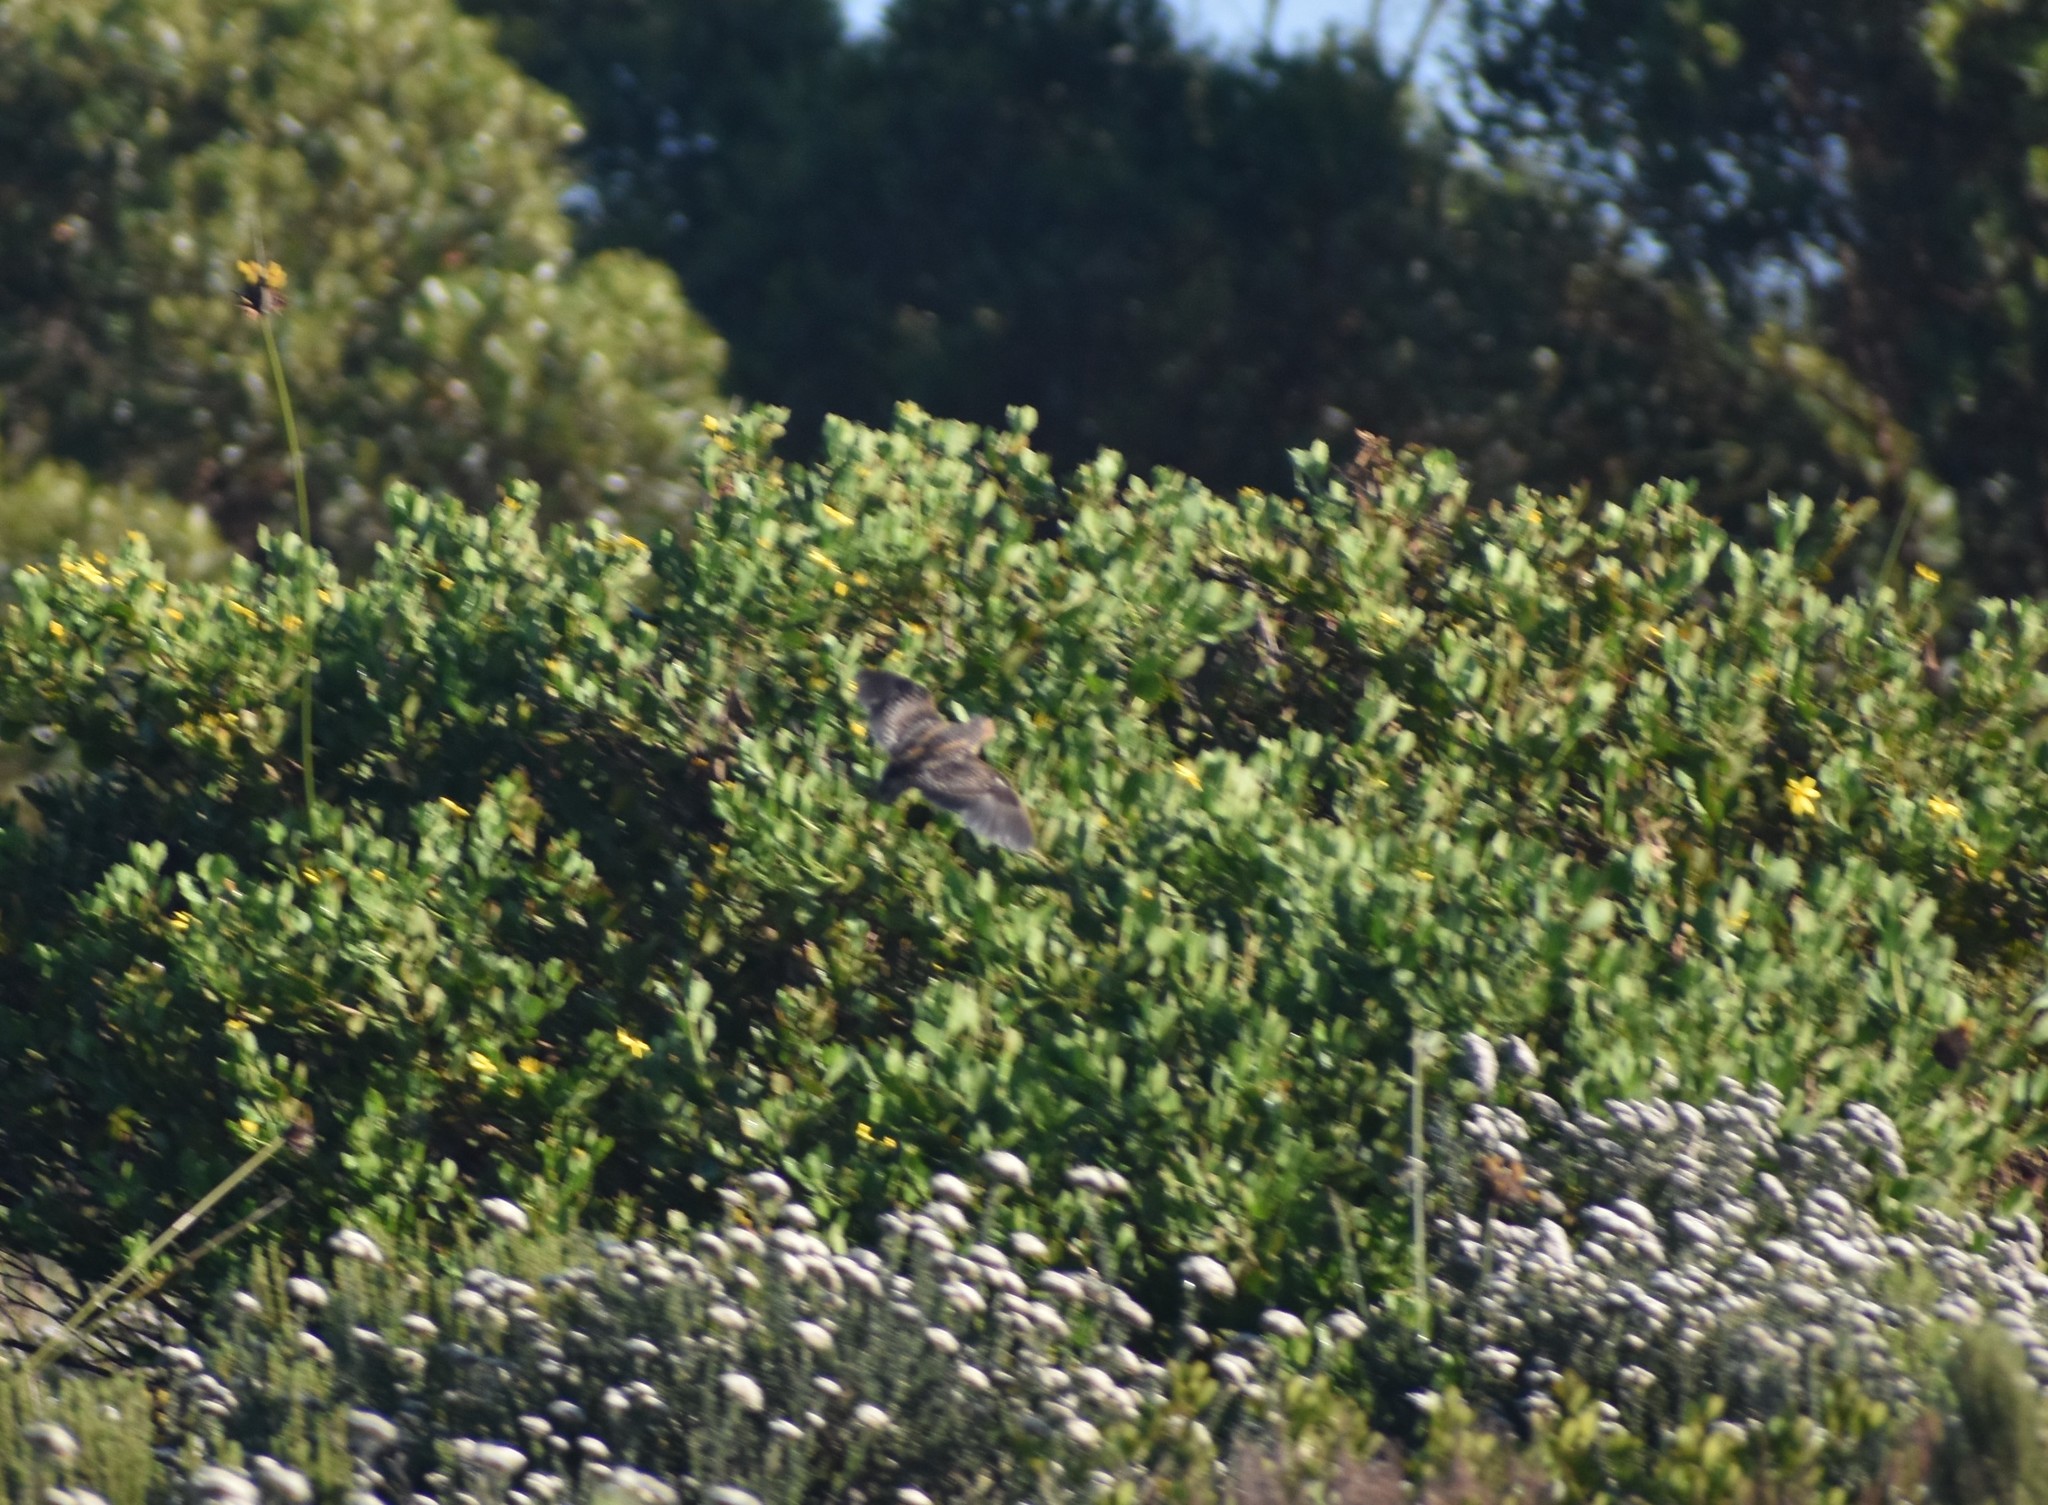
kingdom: Animalia
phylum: Chordata
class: Aves
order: Charadriiformes
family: Turnicidae
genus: Turnix
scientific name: Turnix hottentottus
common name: Hottentot buttonquail
